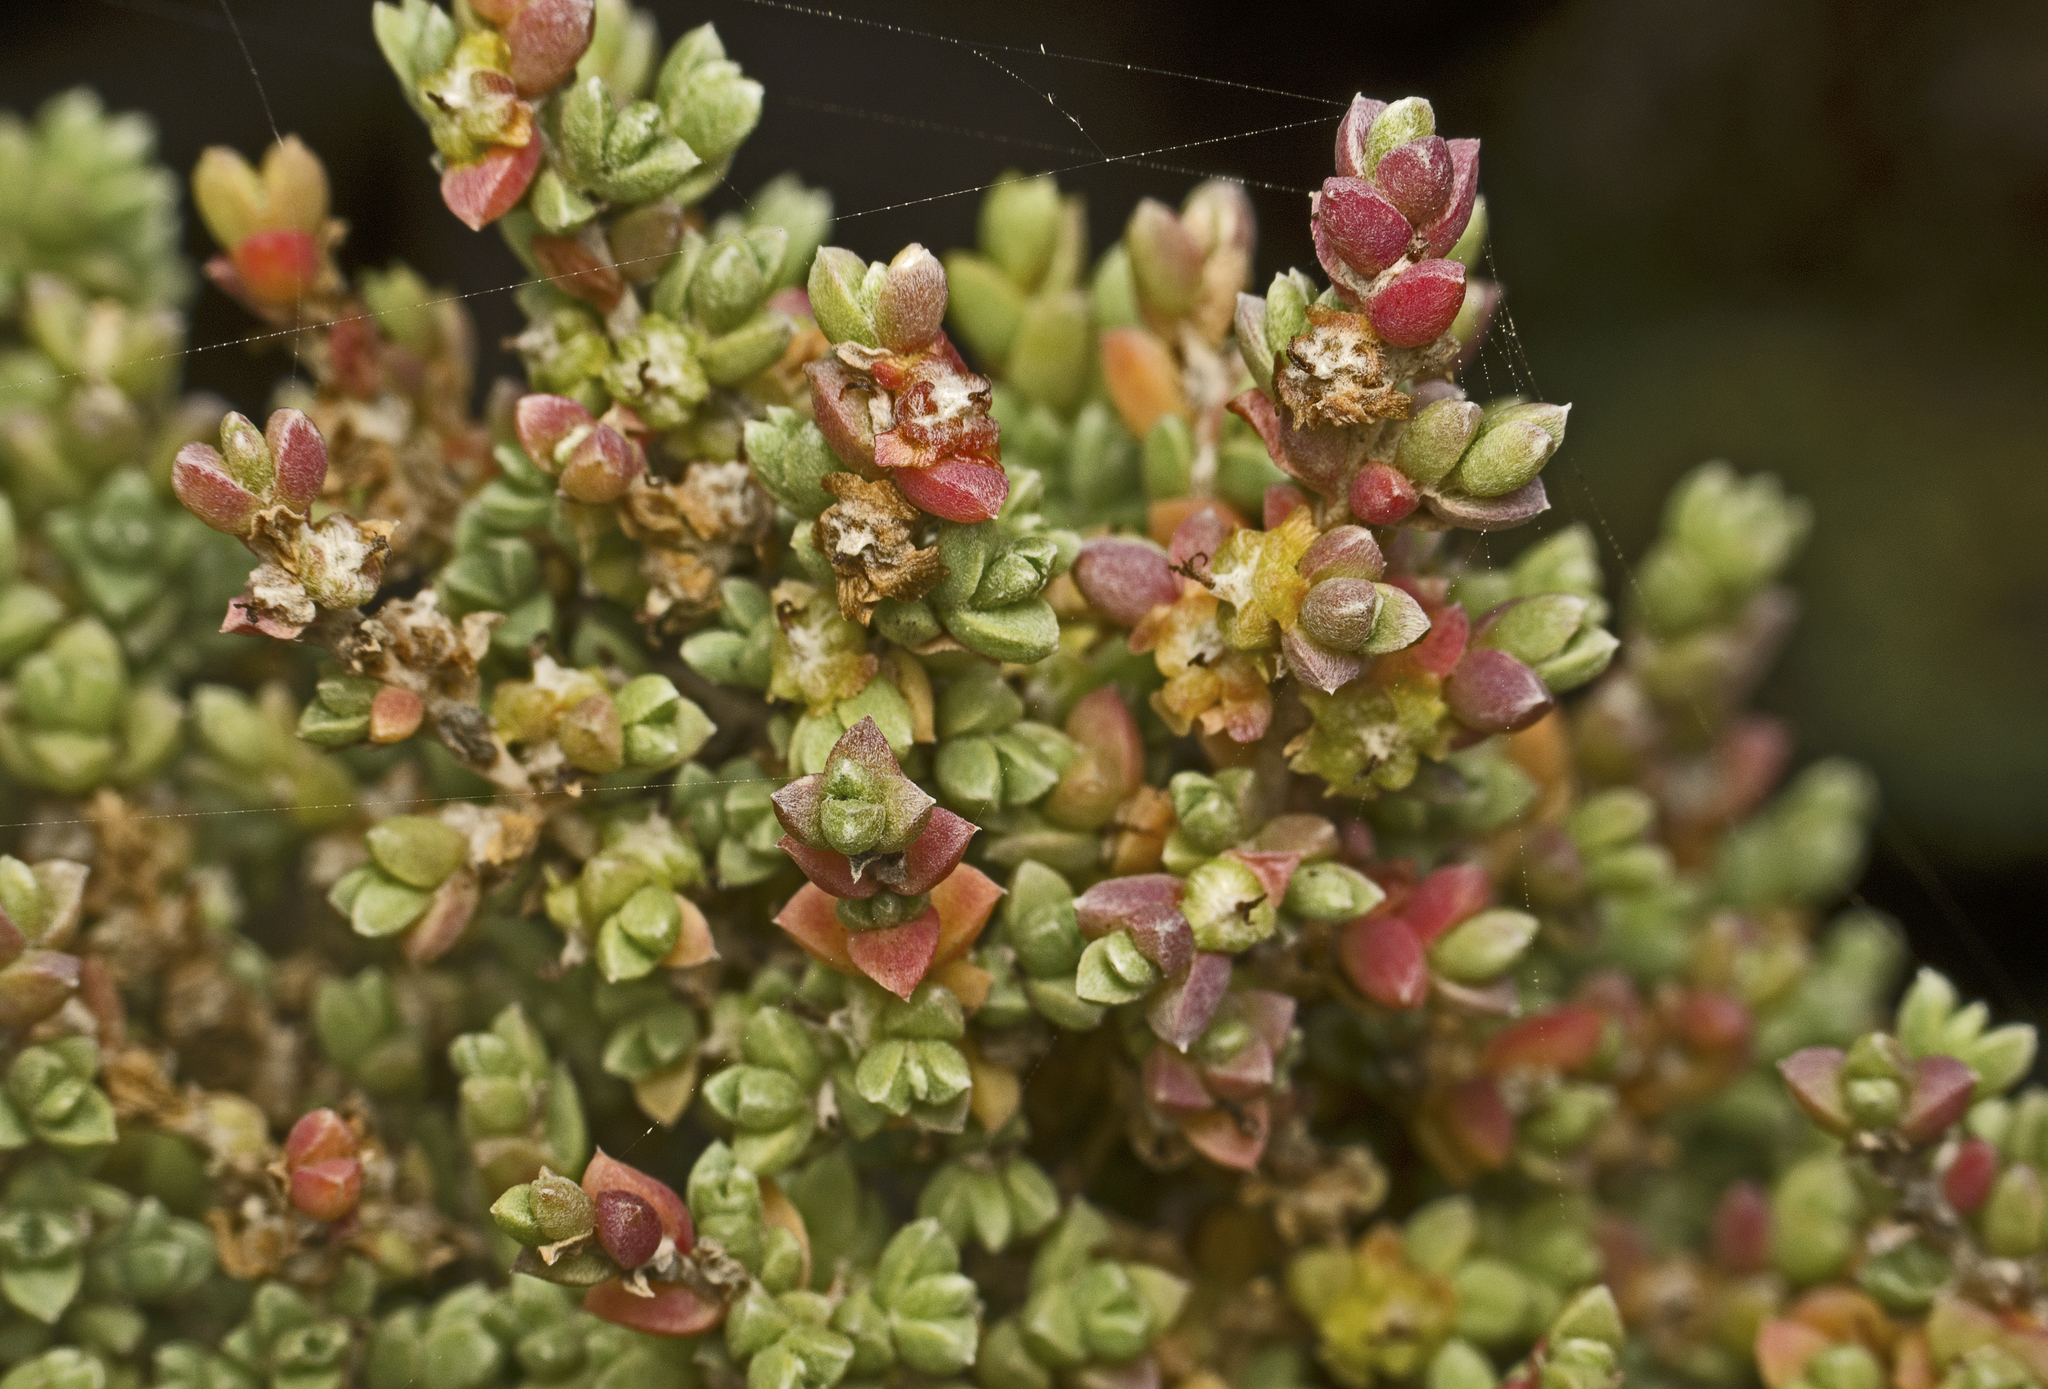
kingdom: Plantae
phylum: Tracheophyta
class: Magnoliopsida
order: Caryophyllales
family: Amaranthaceae
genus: Maireana
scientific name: Maireana oppositifolia
